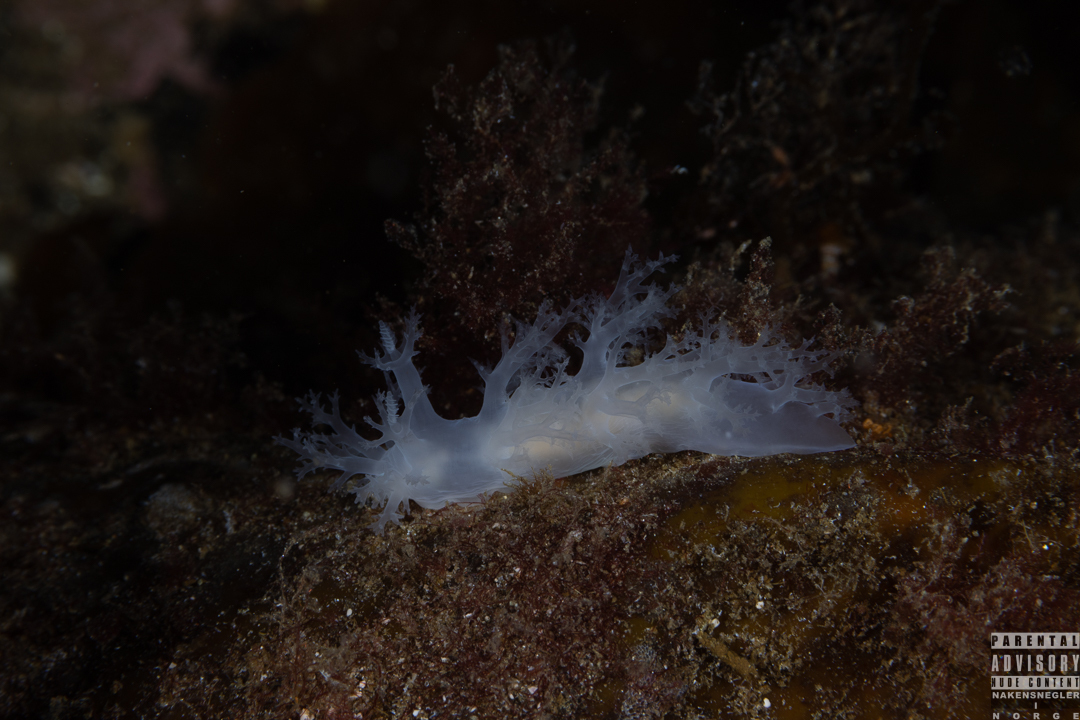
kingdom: Animalia
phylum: Mollusca
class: Gastropoda
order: Nudibranchia
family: Dendronotidae
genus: Dendronotus
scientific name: Dendronotus lacteus
